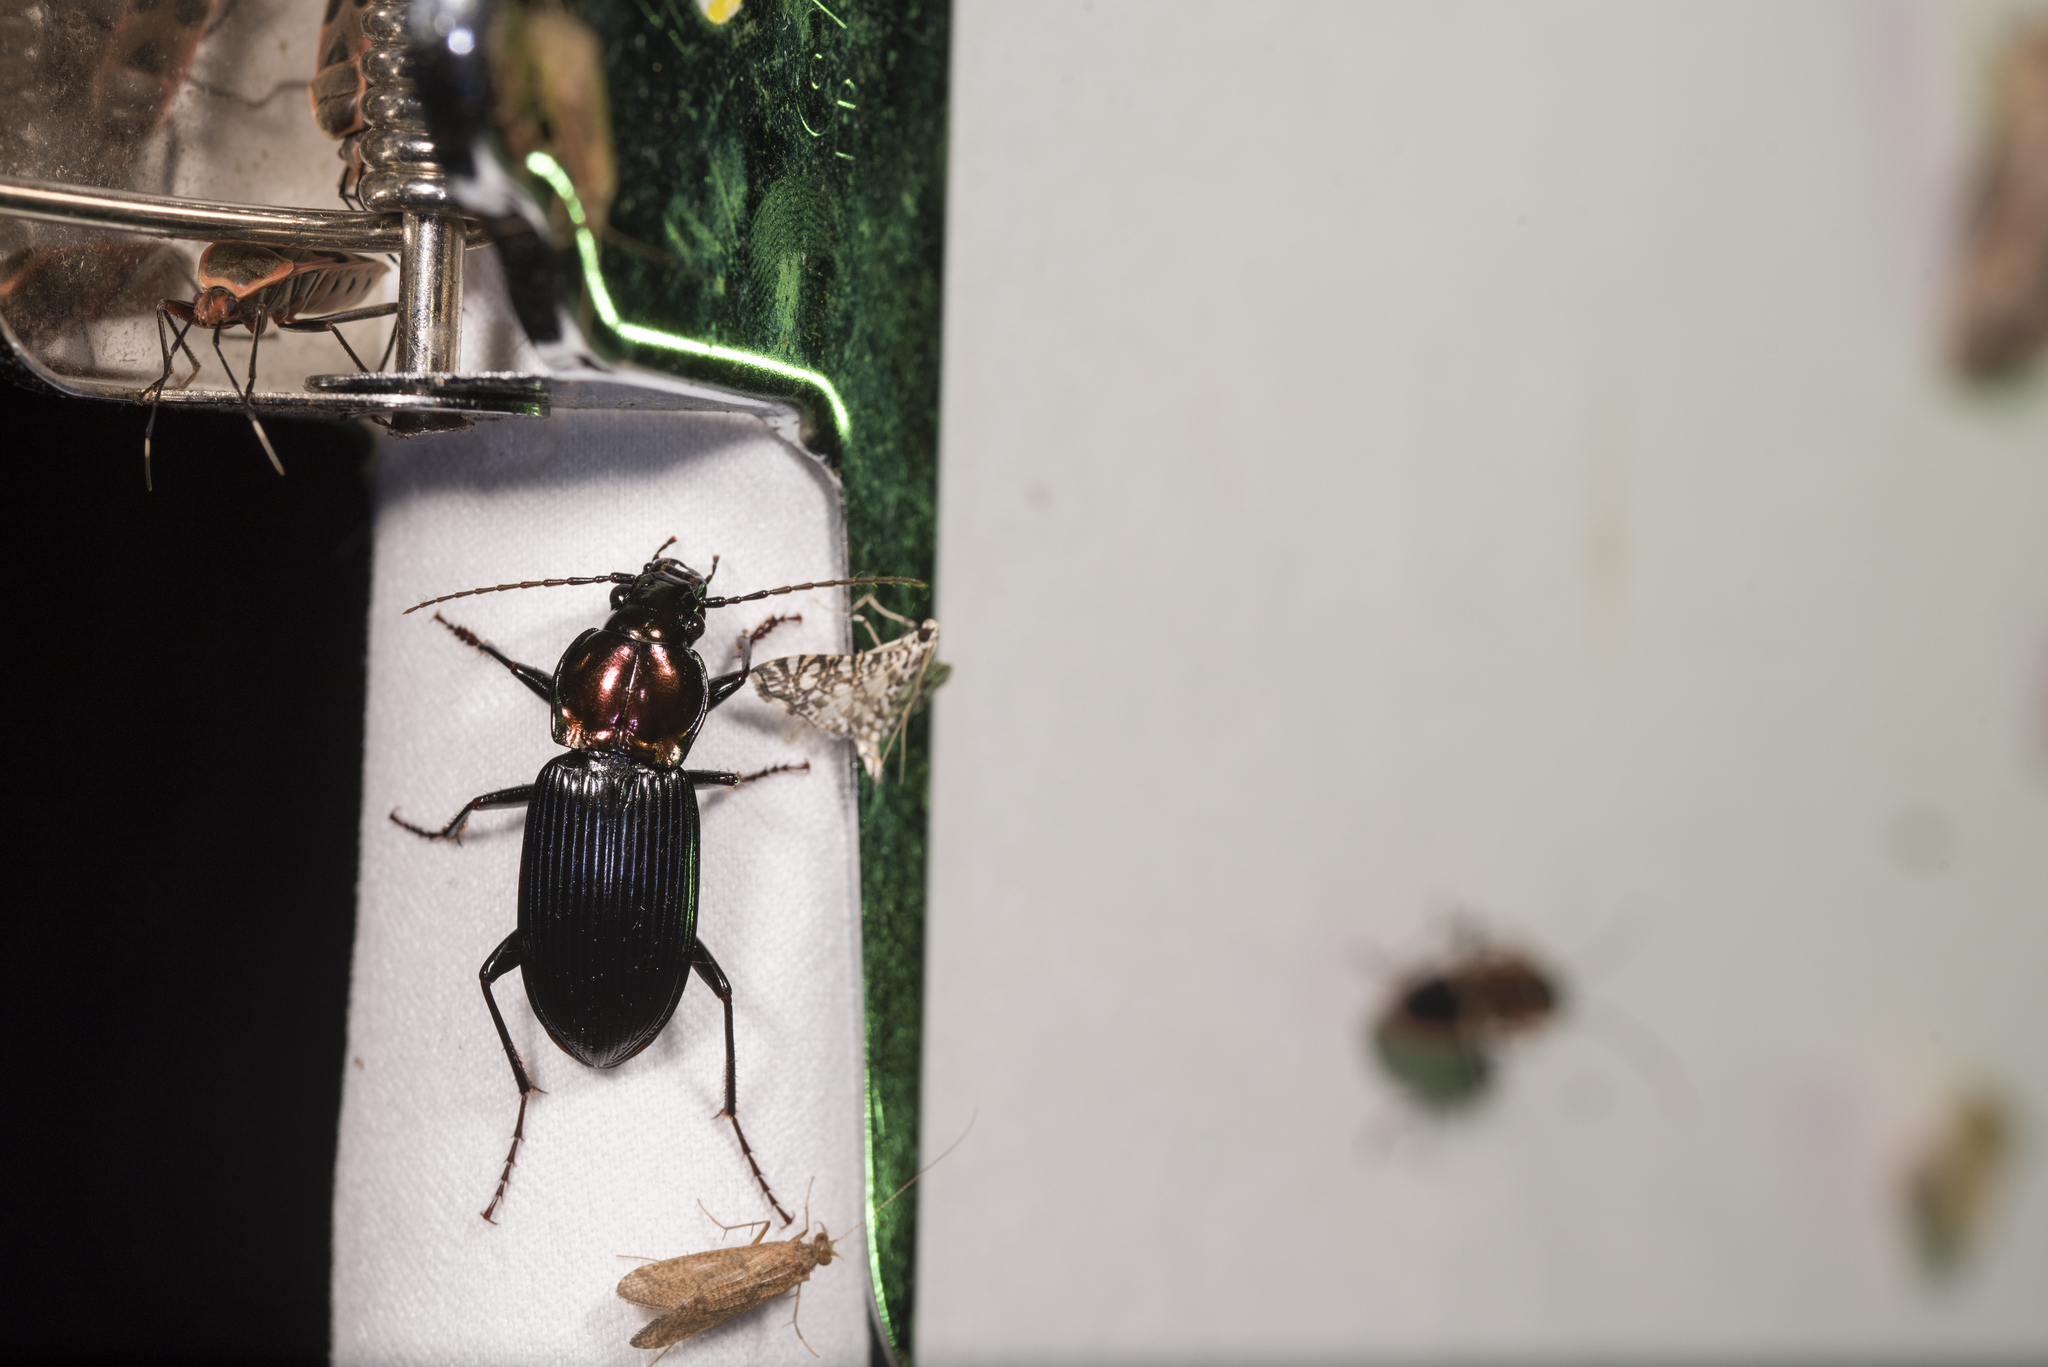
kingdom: Animalia
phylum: Arthropoda
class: Insecta
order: Coleoptera
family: Carabidae
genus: Lesticus
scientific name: Lesticus auricollis
